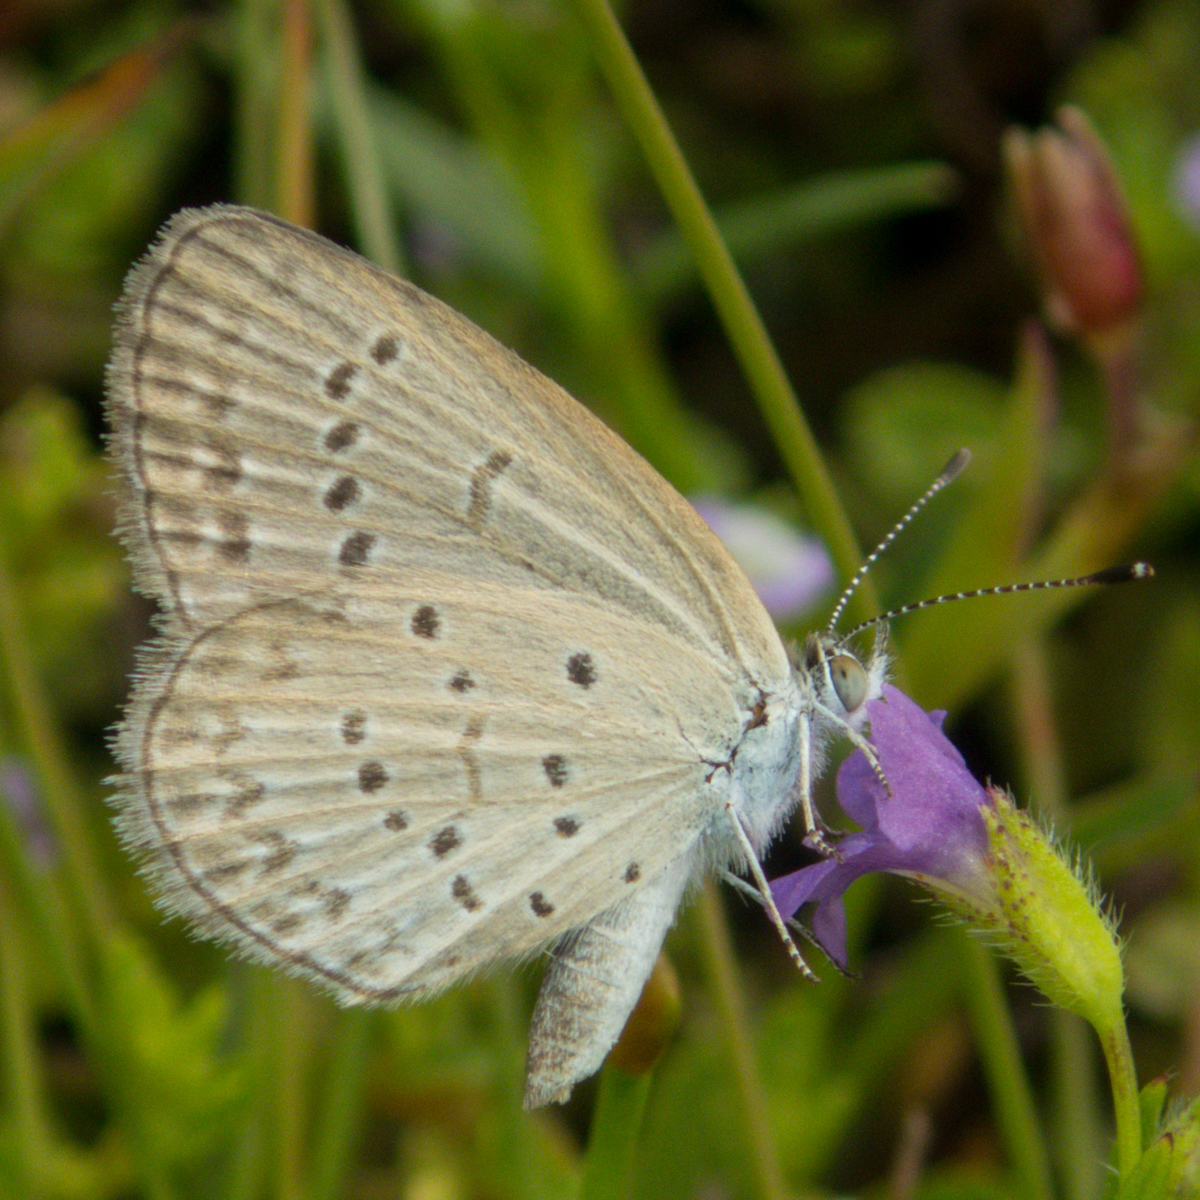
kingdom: Animalia
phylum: Arthropoda
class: Insecta
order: Lepidoptera
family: Lycaenidae
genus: Zizina
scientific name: Zizina otis
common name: Lesser grass blue
